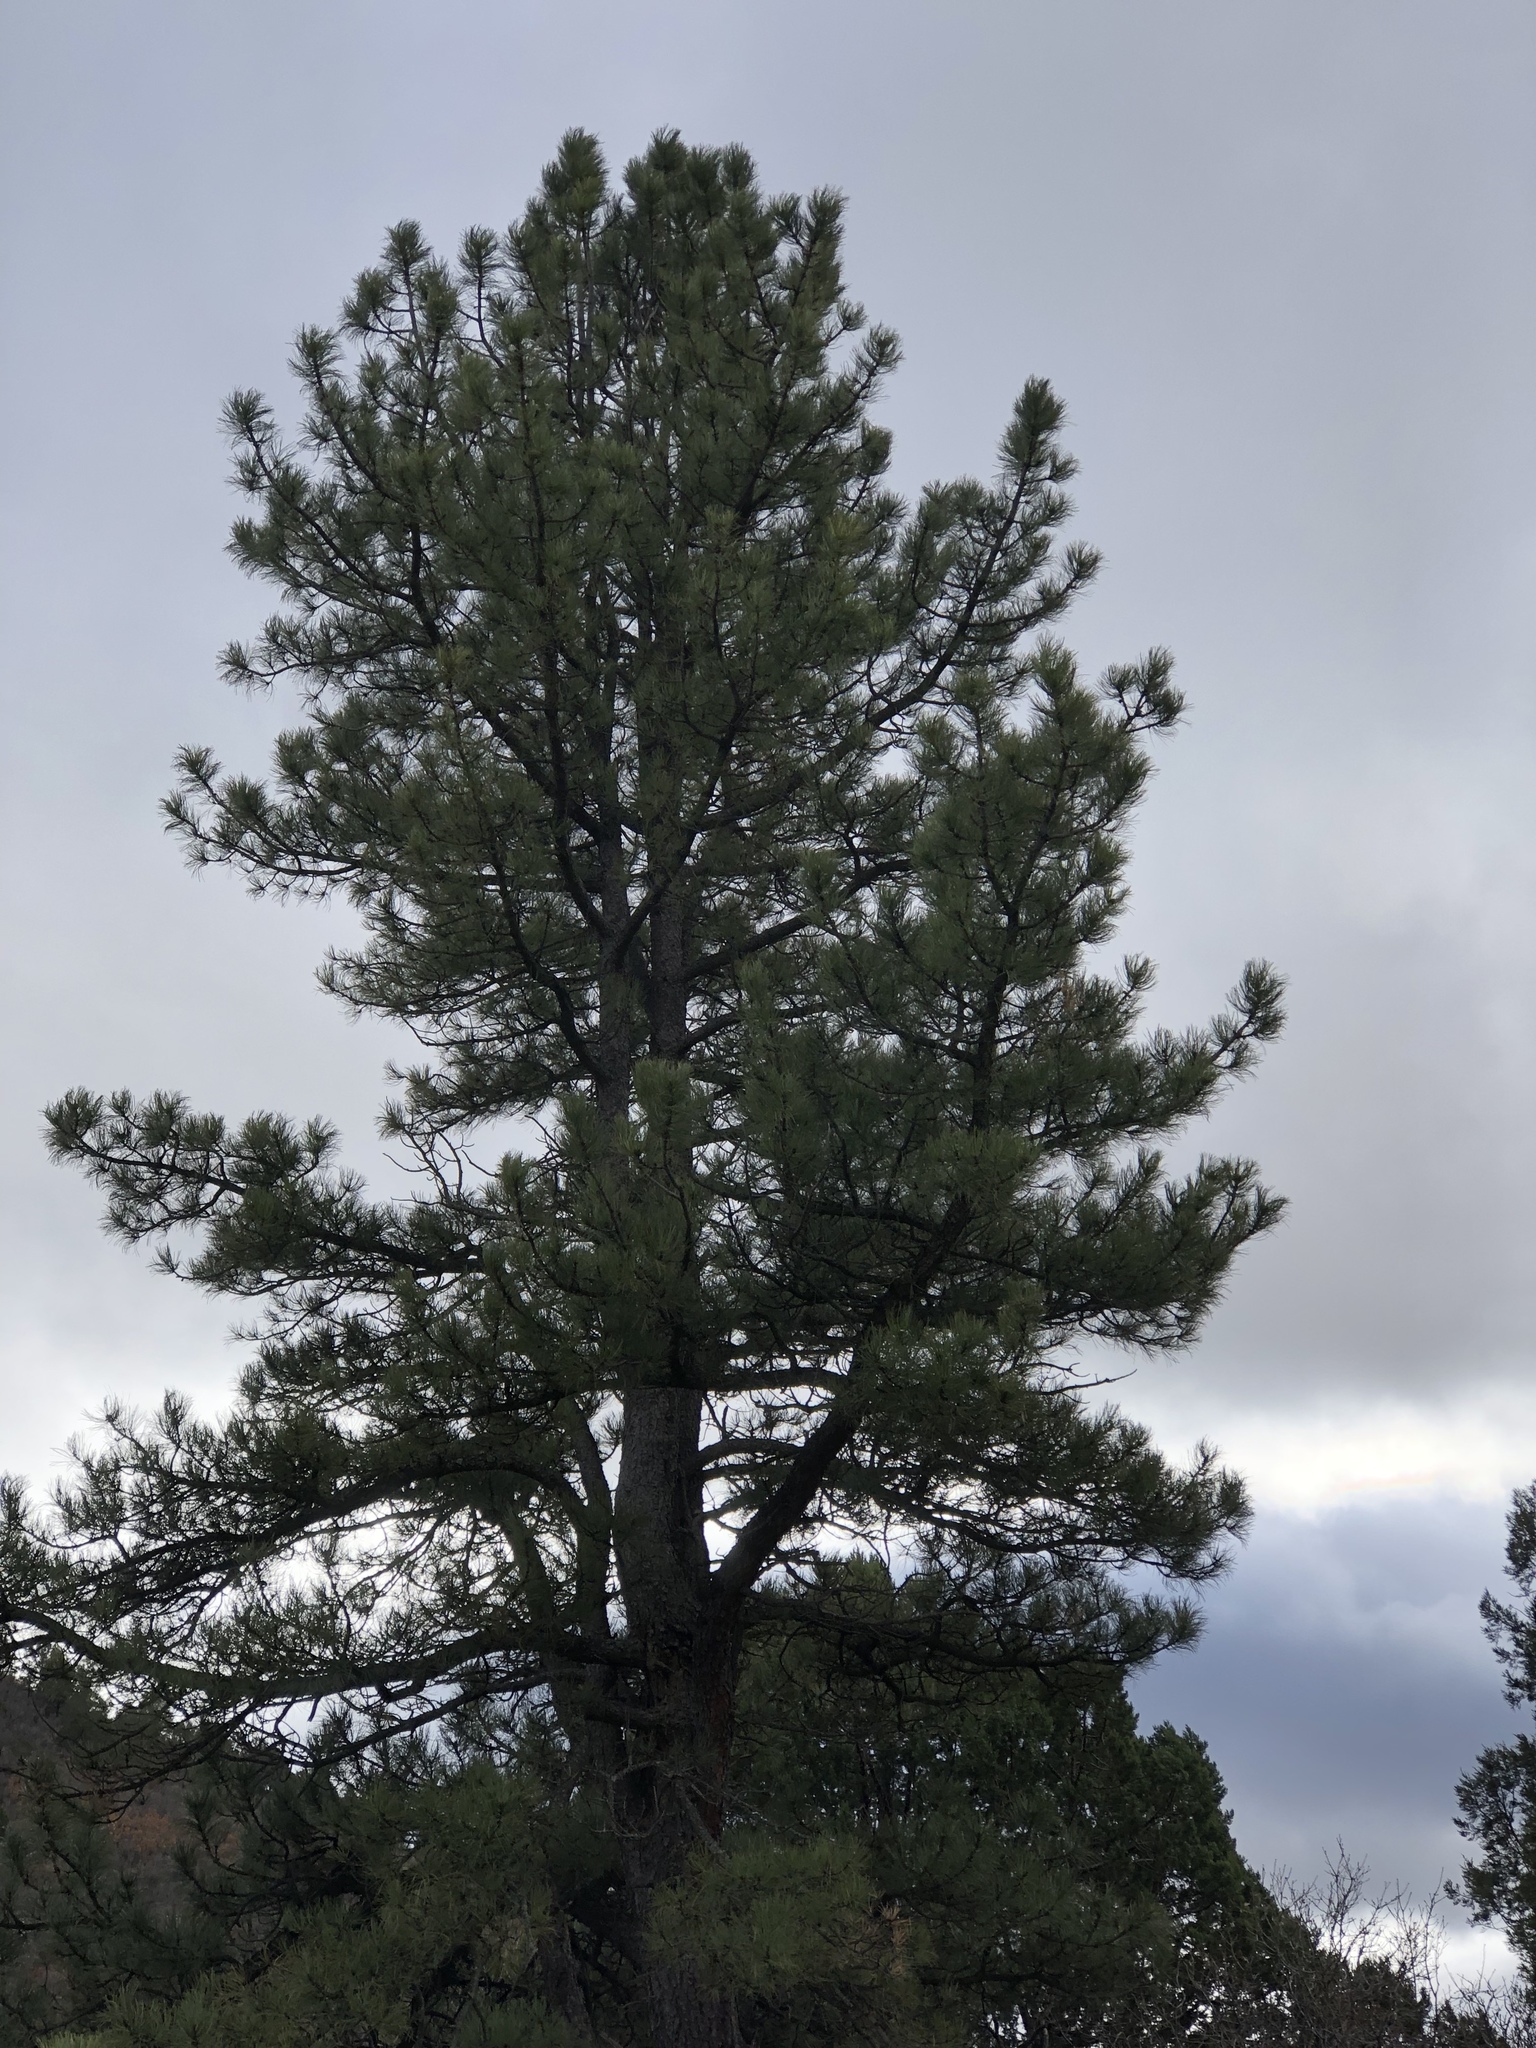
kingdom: Plantae
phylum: Tracheophyta
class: Pinopsida
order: Pinales
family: Pinaceae
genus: Pinus
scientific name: Pinus ponderosa
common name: Western yellow-pine
